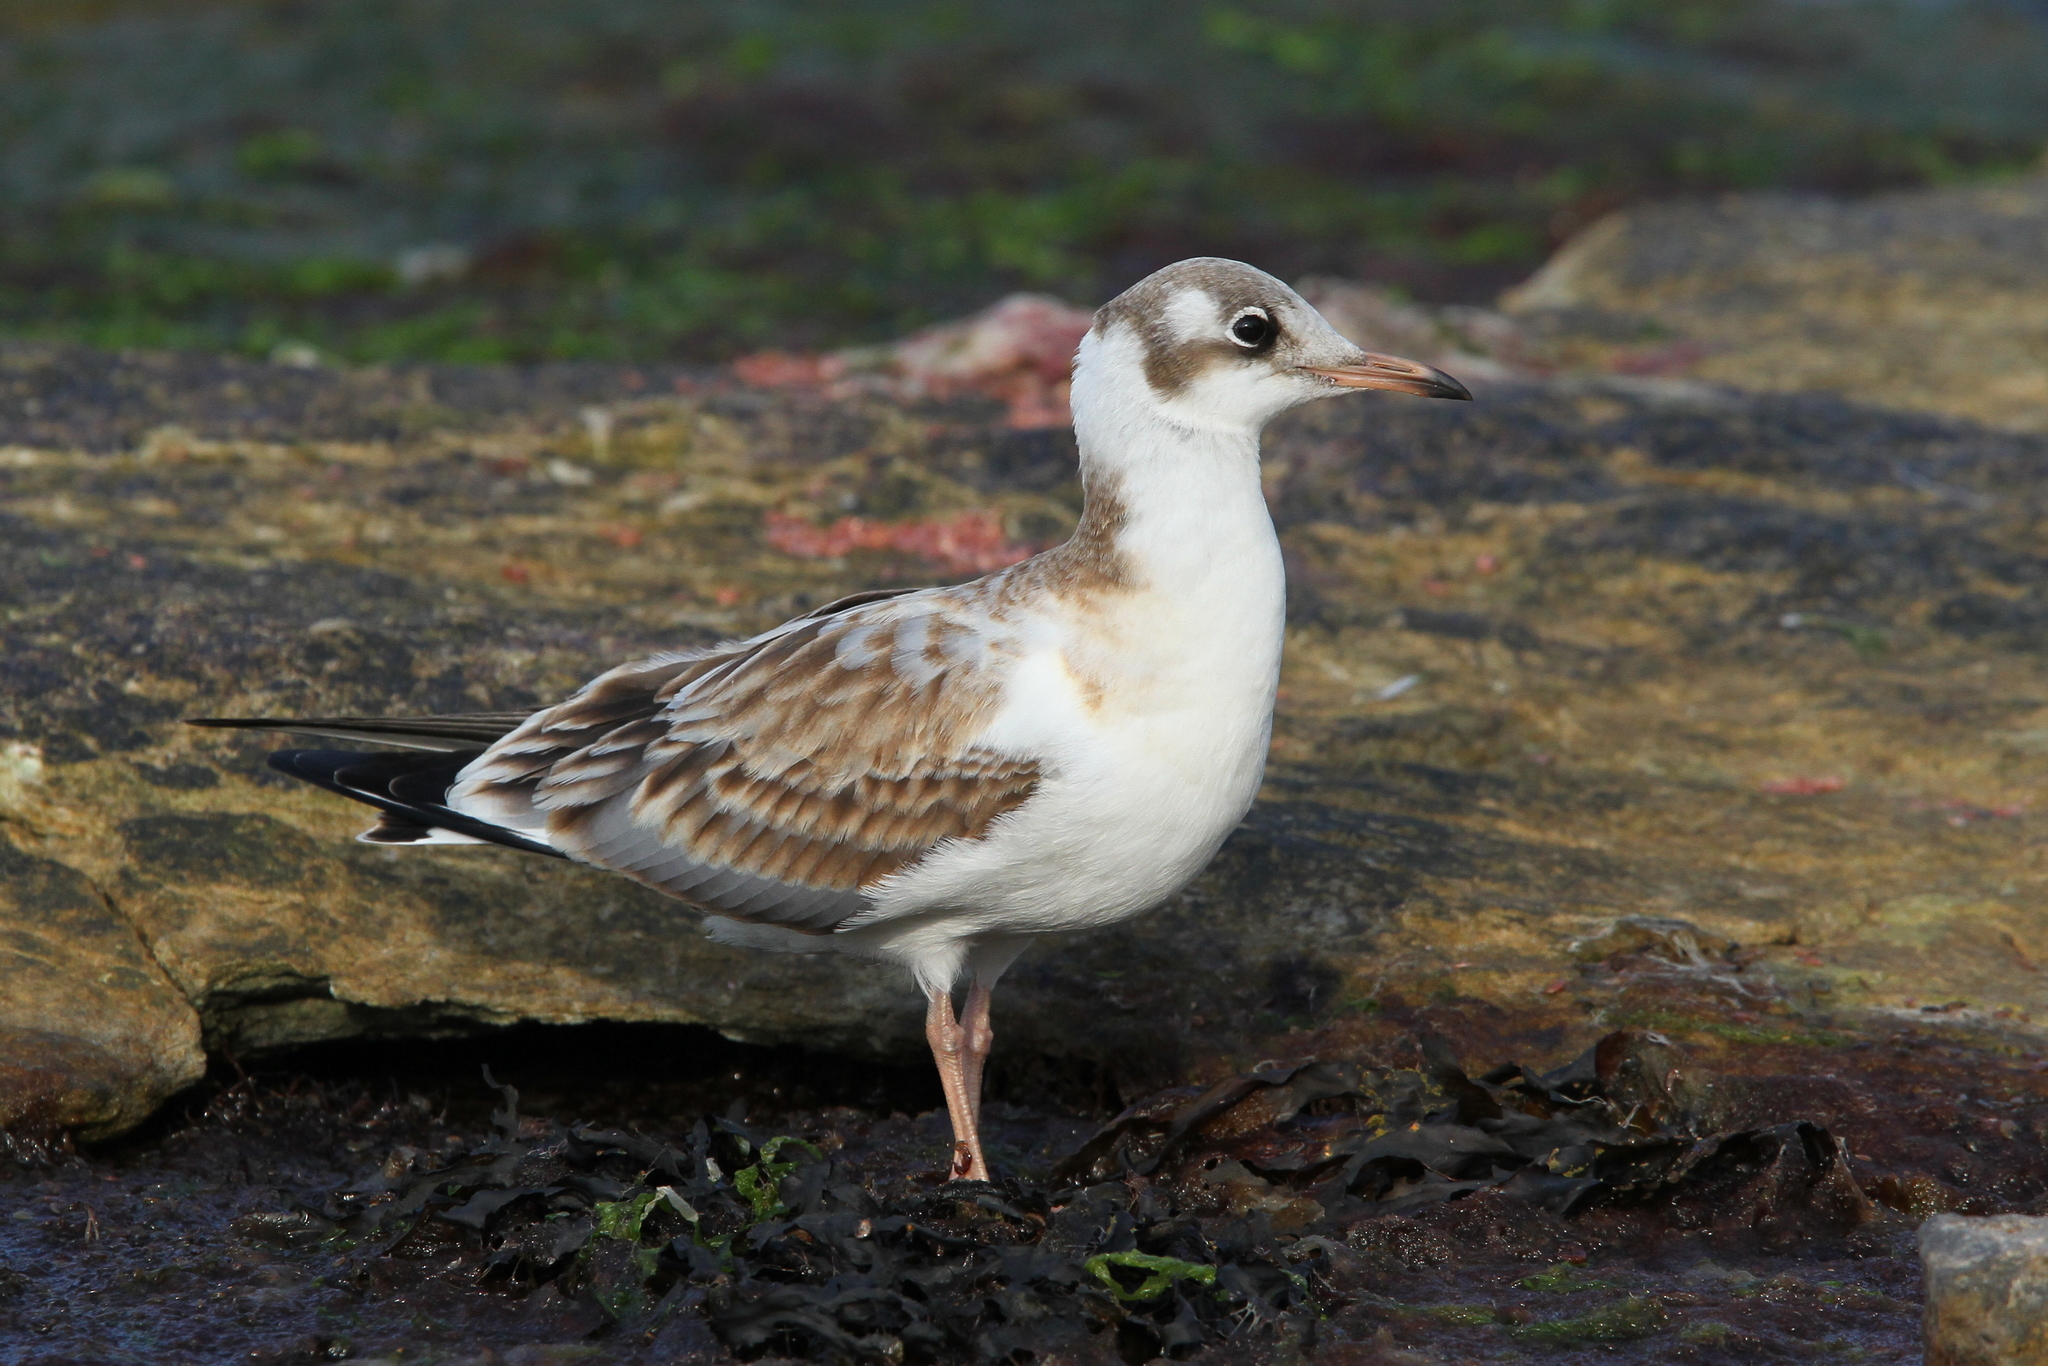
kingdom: Animalia
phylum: Chordata
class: Aves
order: Charadriiformes
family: Laridae
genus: Chroicocephalus
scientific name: Chroicocephalus ridibundus
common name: Black-headed gull
